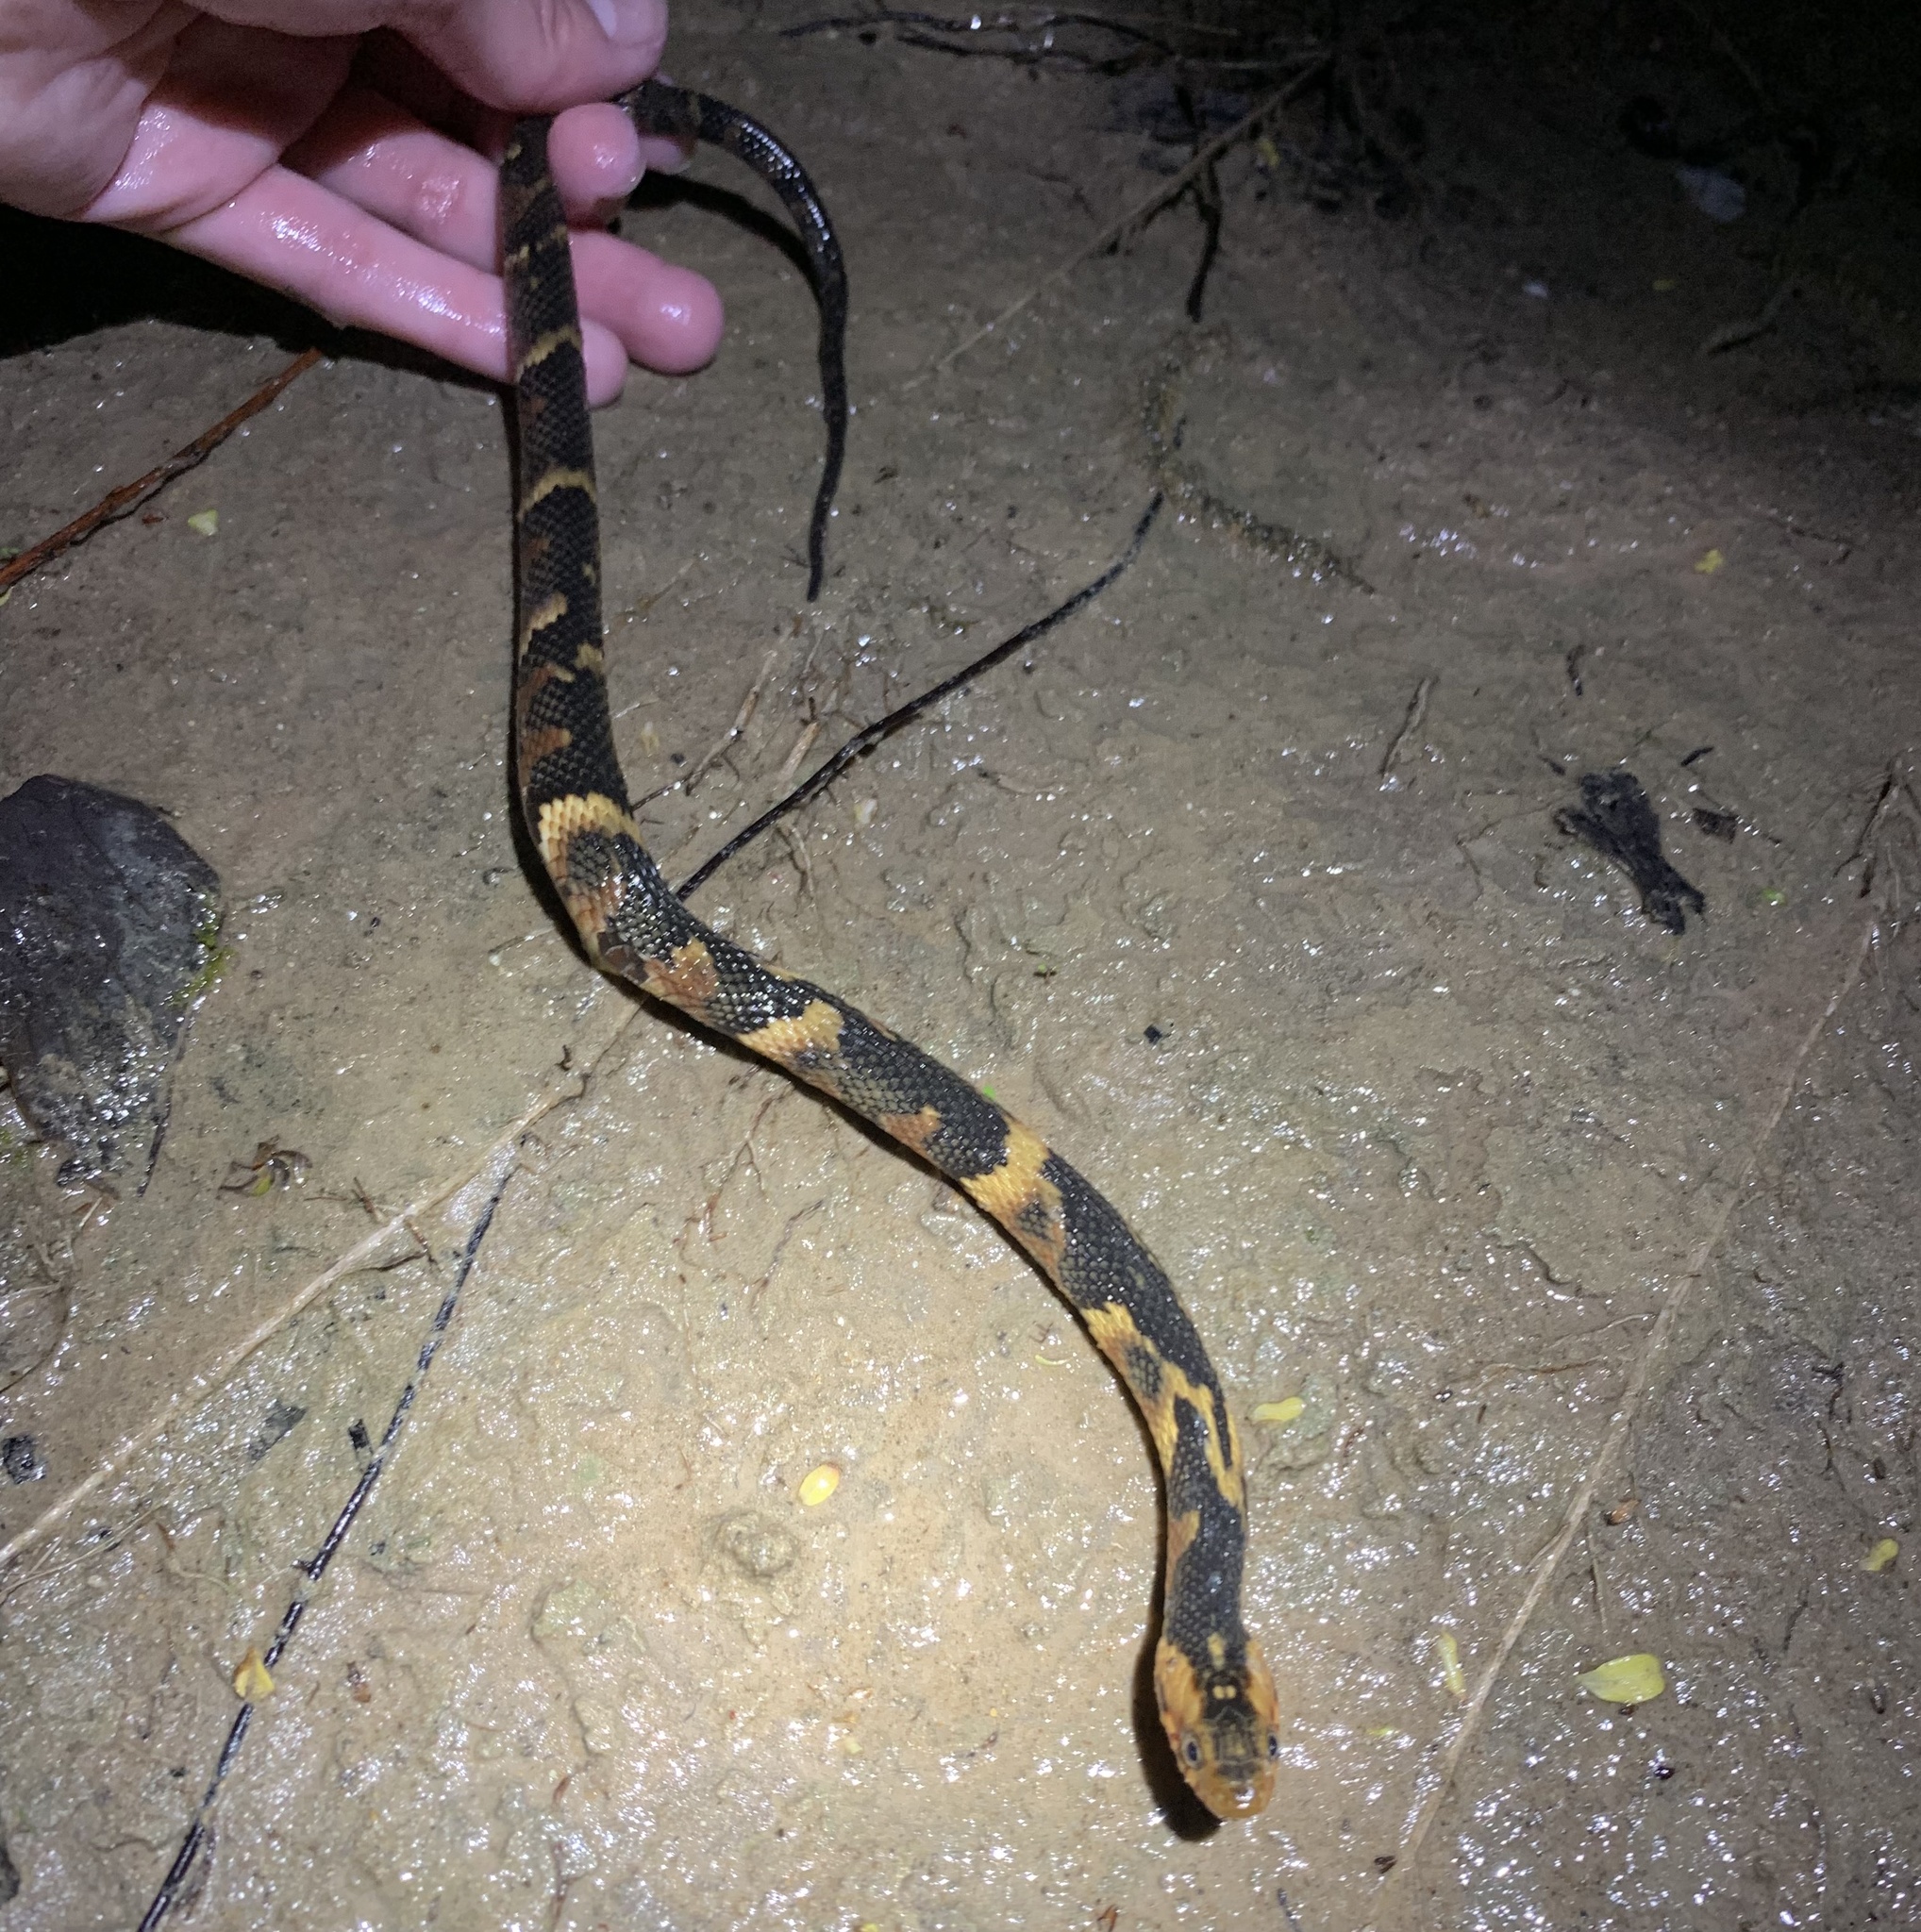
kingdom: Animalia
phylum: Chordata
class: Squamata
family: Colubridae
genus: Nerodia
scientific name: Nerodia fasciata
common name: Southern water snake
